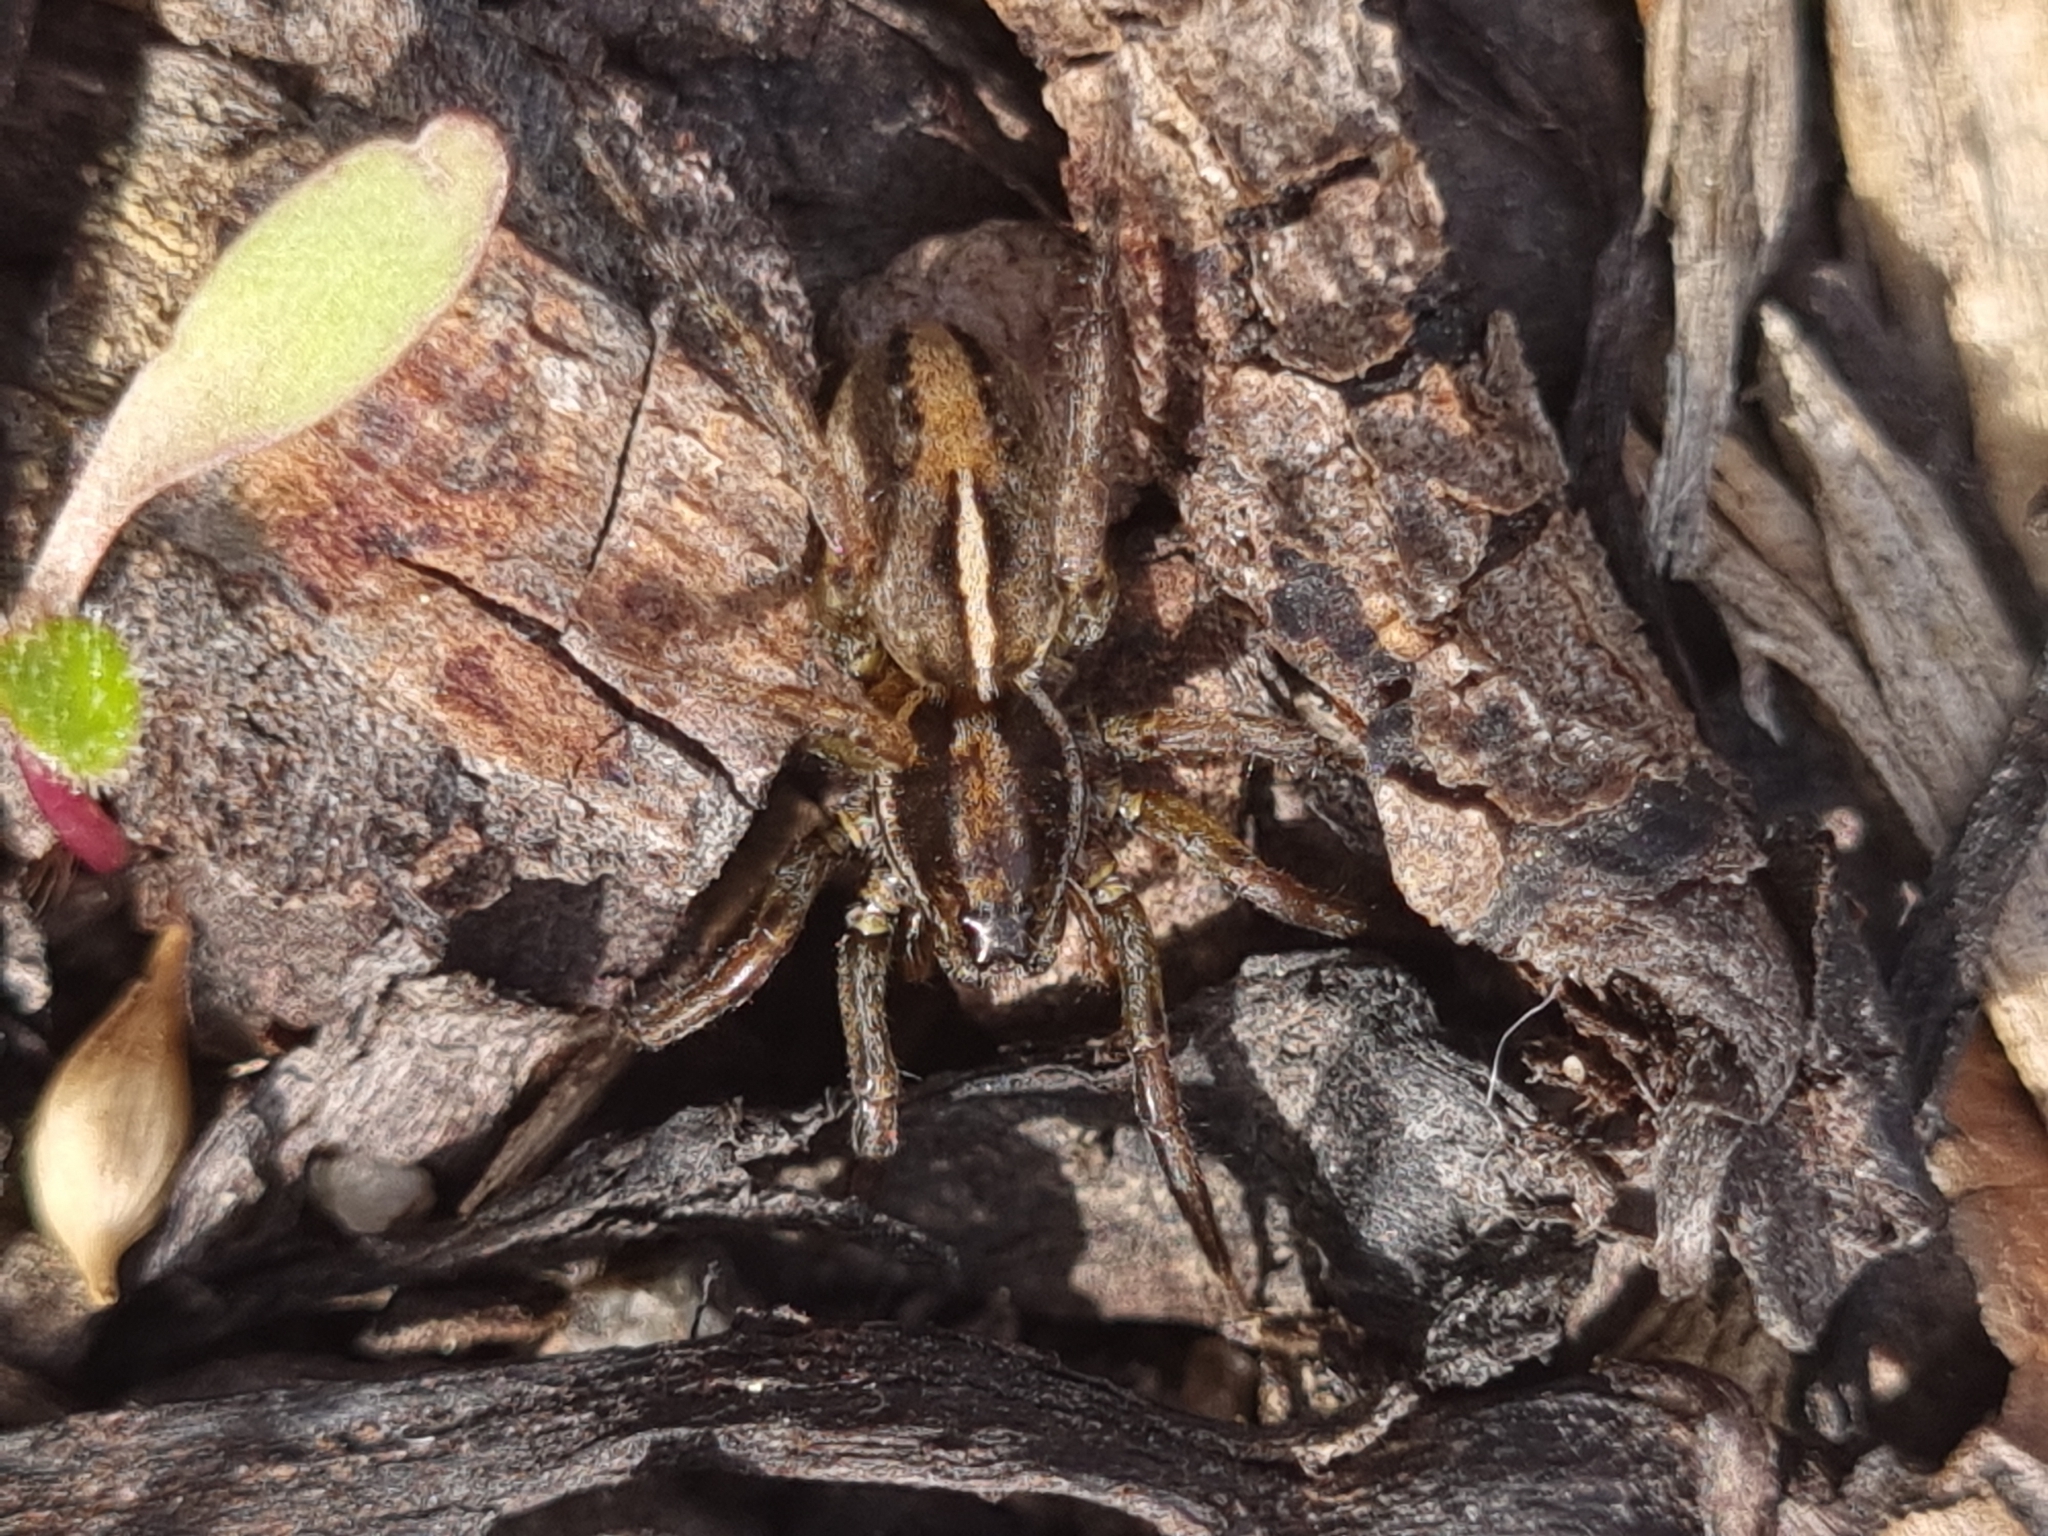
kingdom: Animalia
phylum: Arthropoda
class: Arachnida
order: Araneae
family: Lycosidae
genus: Artoriopsis
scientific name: Artoriopsis expolita
